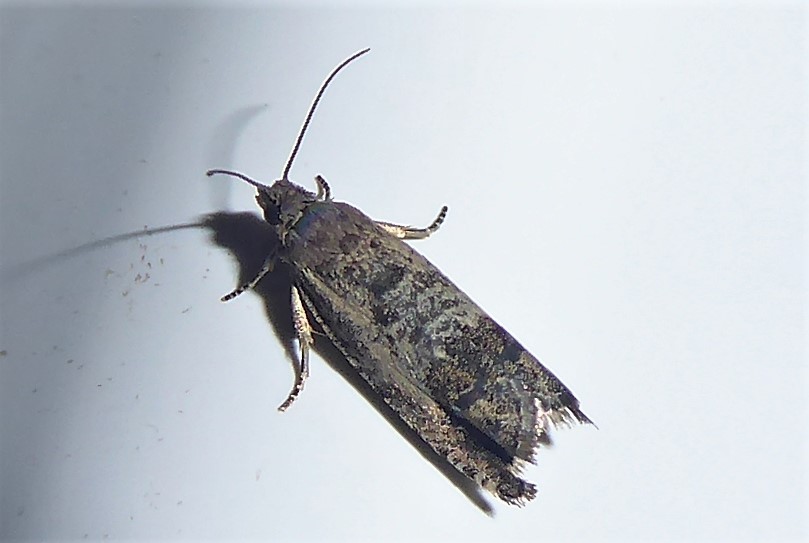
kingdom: Animalia
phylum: Arthropoda
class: Insecta
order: Lepidoptera
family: Tortricidae
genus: Cydia
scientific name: Cydia succedana
